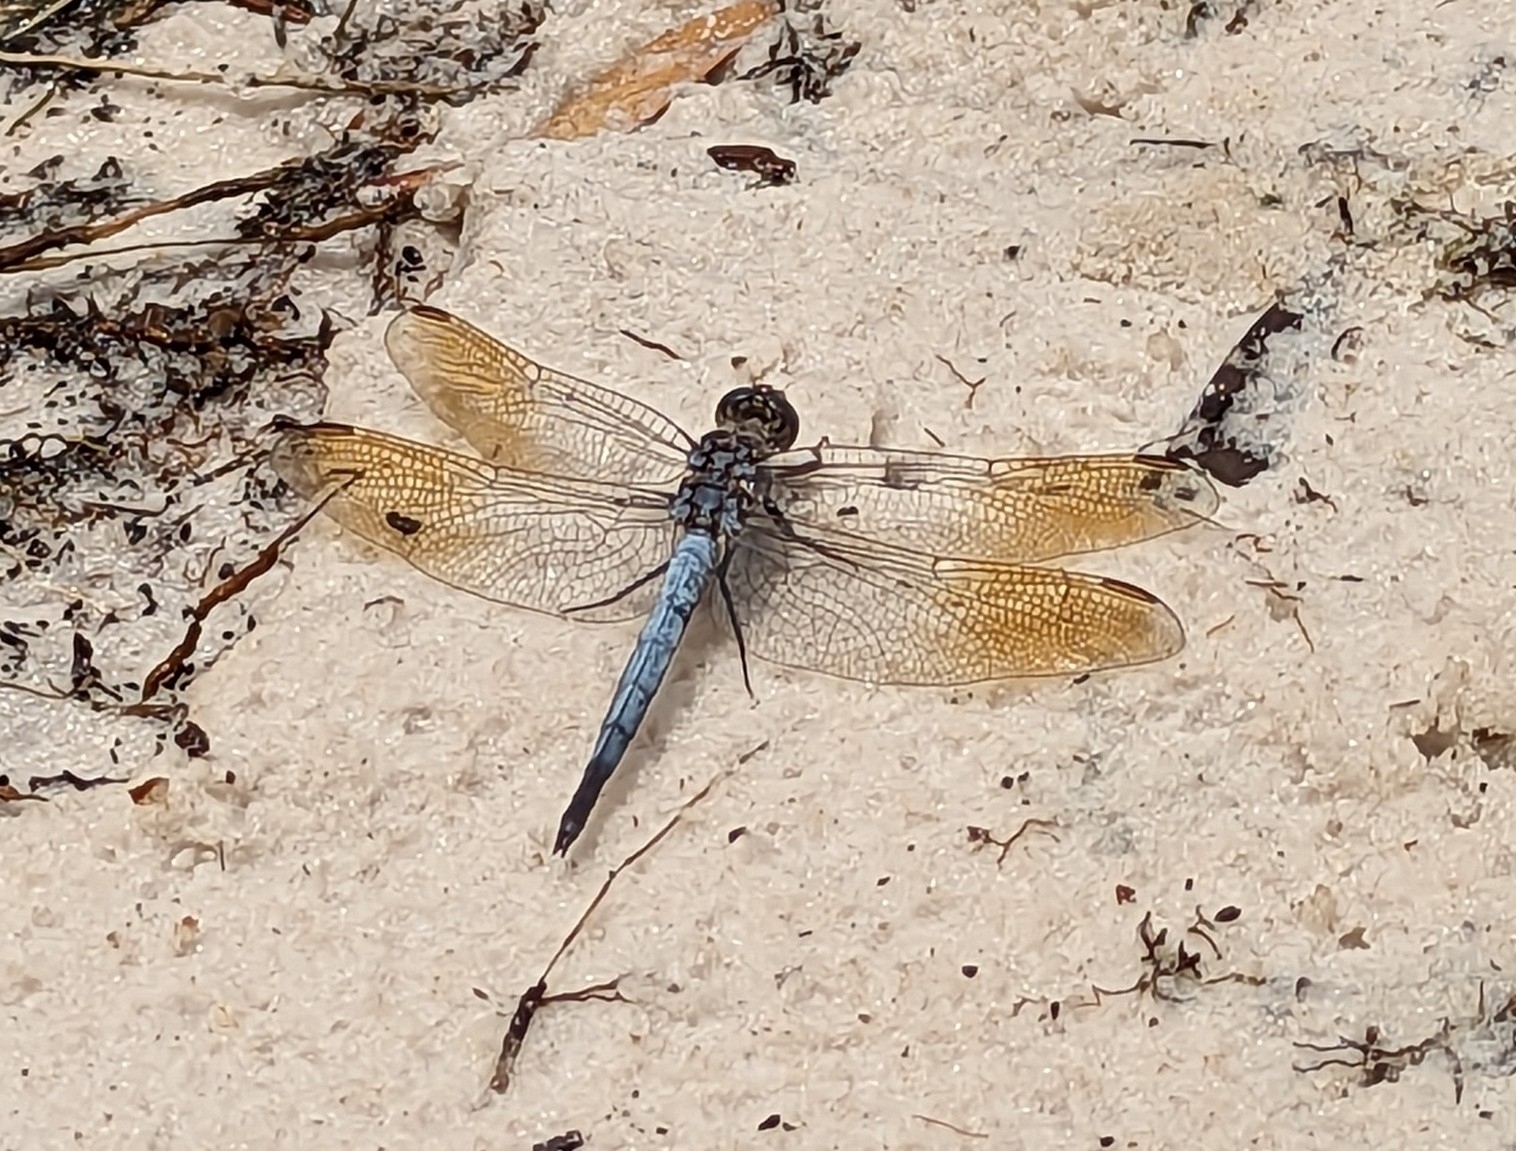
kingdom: Animalia
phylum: Arthropoda
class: Insecta
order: Odonata
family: Libellulidae
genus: Orthetrum
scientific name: Orthetrum caledonicum
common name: Blue skimmer
